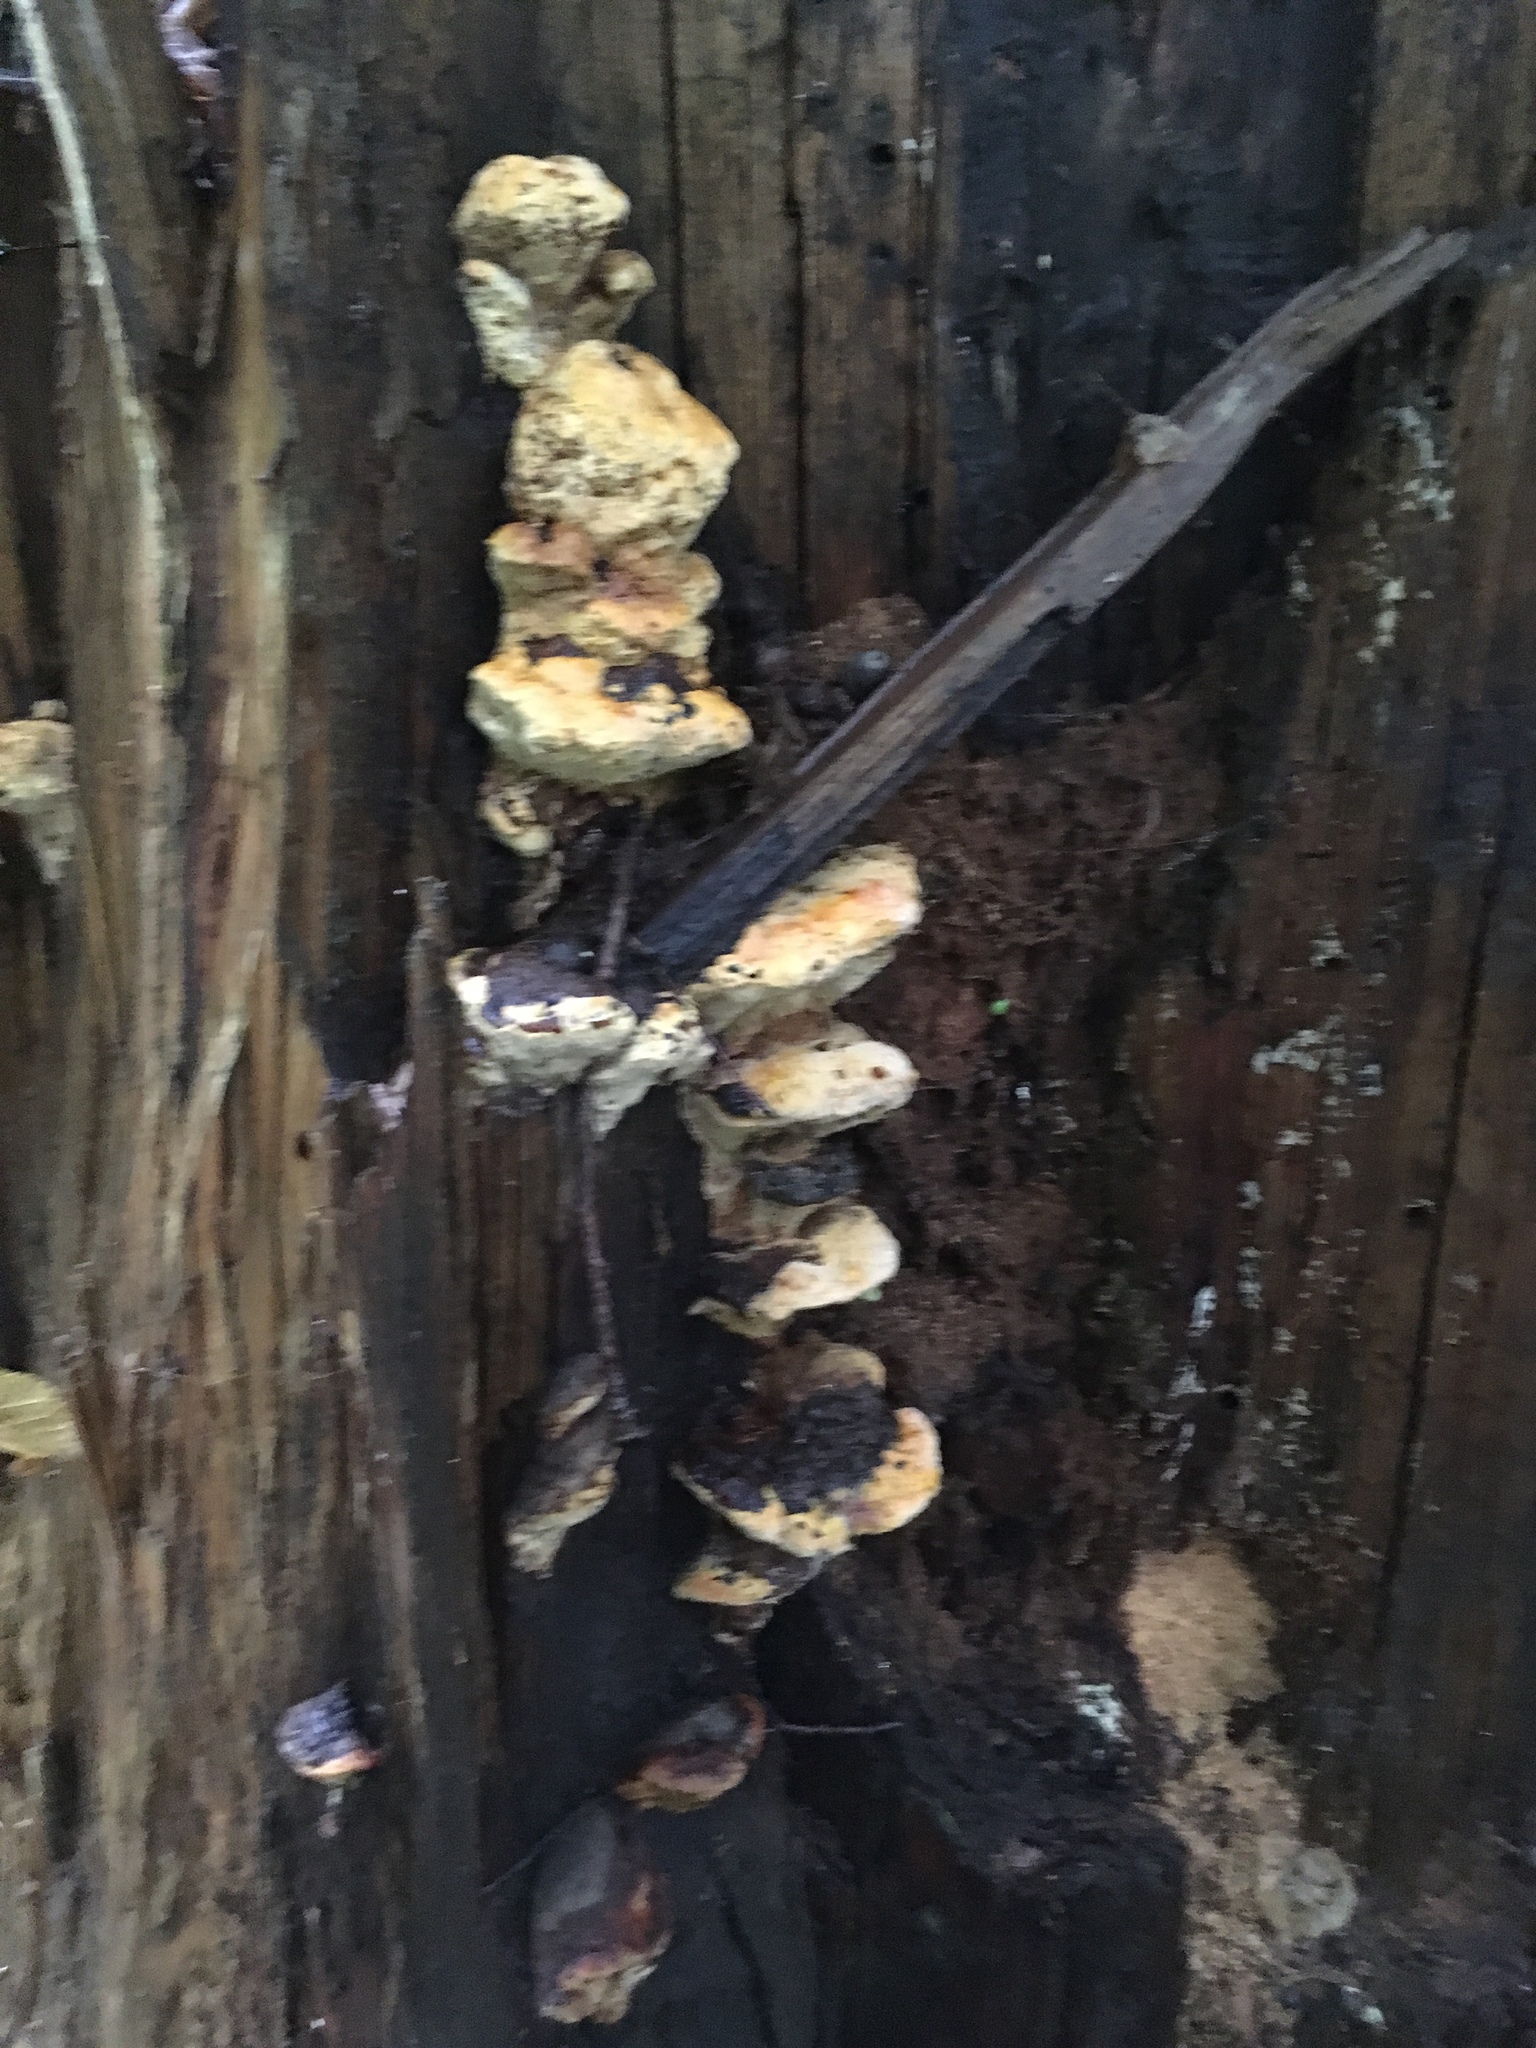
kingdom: Fungi
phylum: Basidiomycota
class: Agaricomycetes
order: Gloeophyllales
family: Gloeophyllaceae
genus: Gloeophyllum
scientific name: Gloeophyllum odoratum
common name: Anise mazegill
